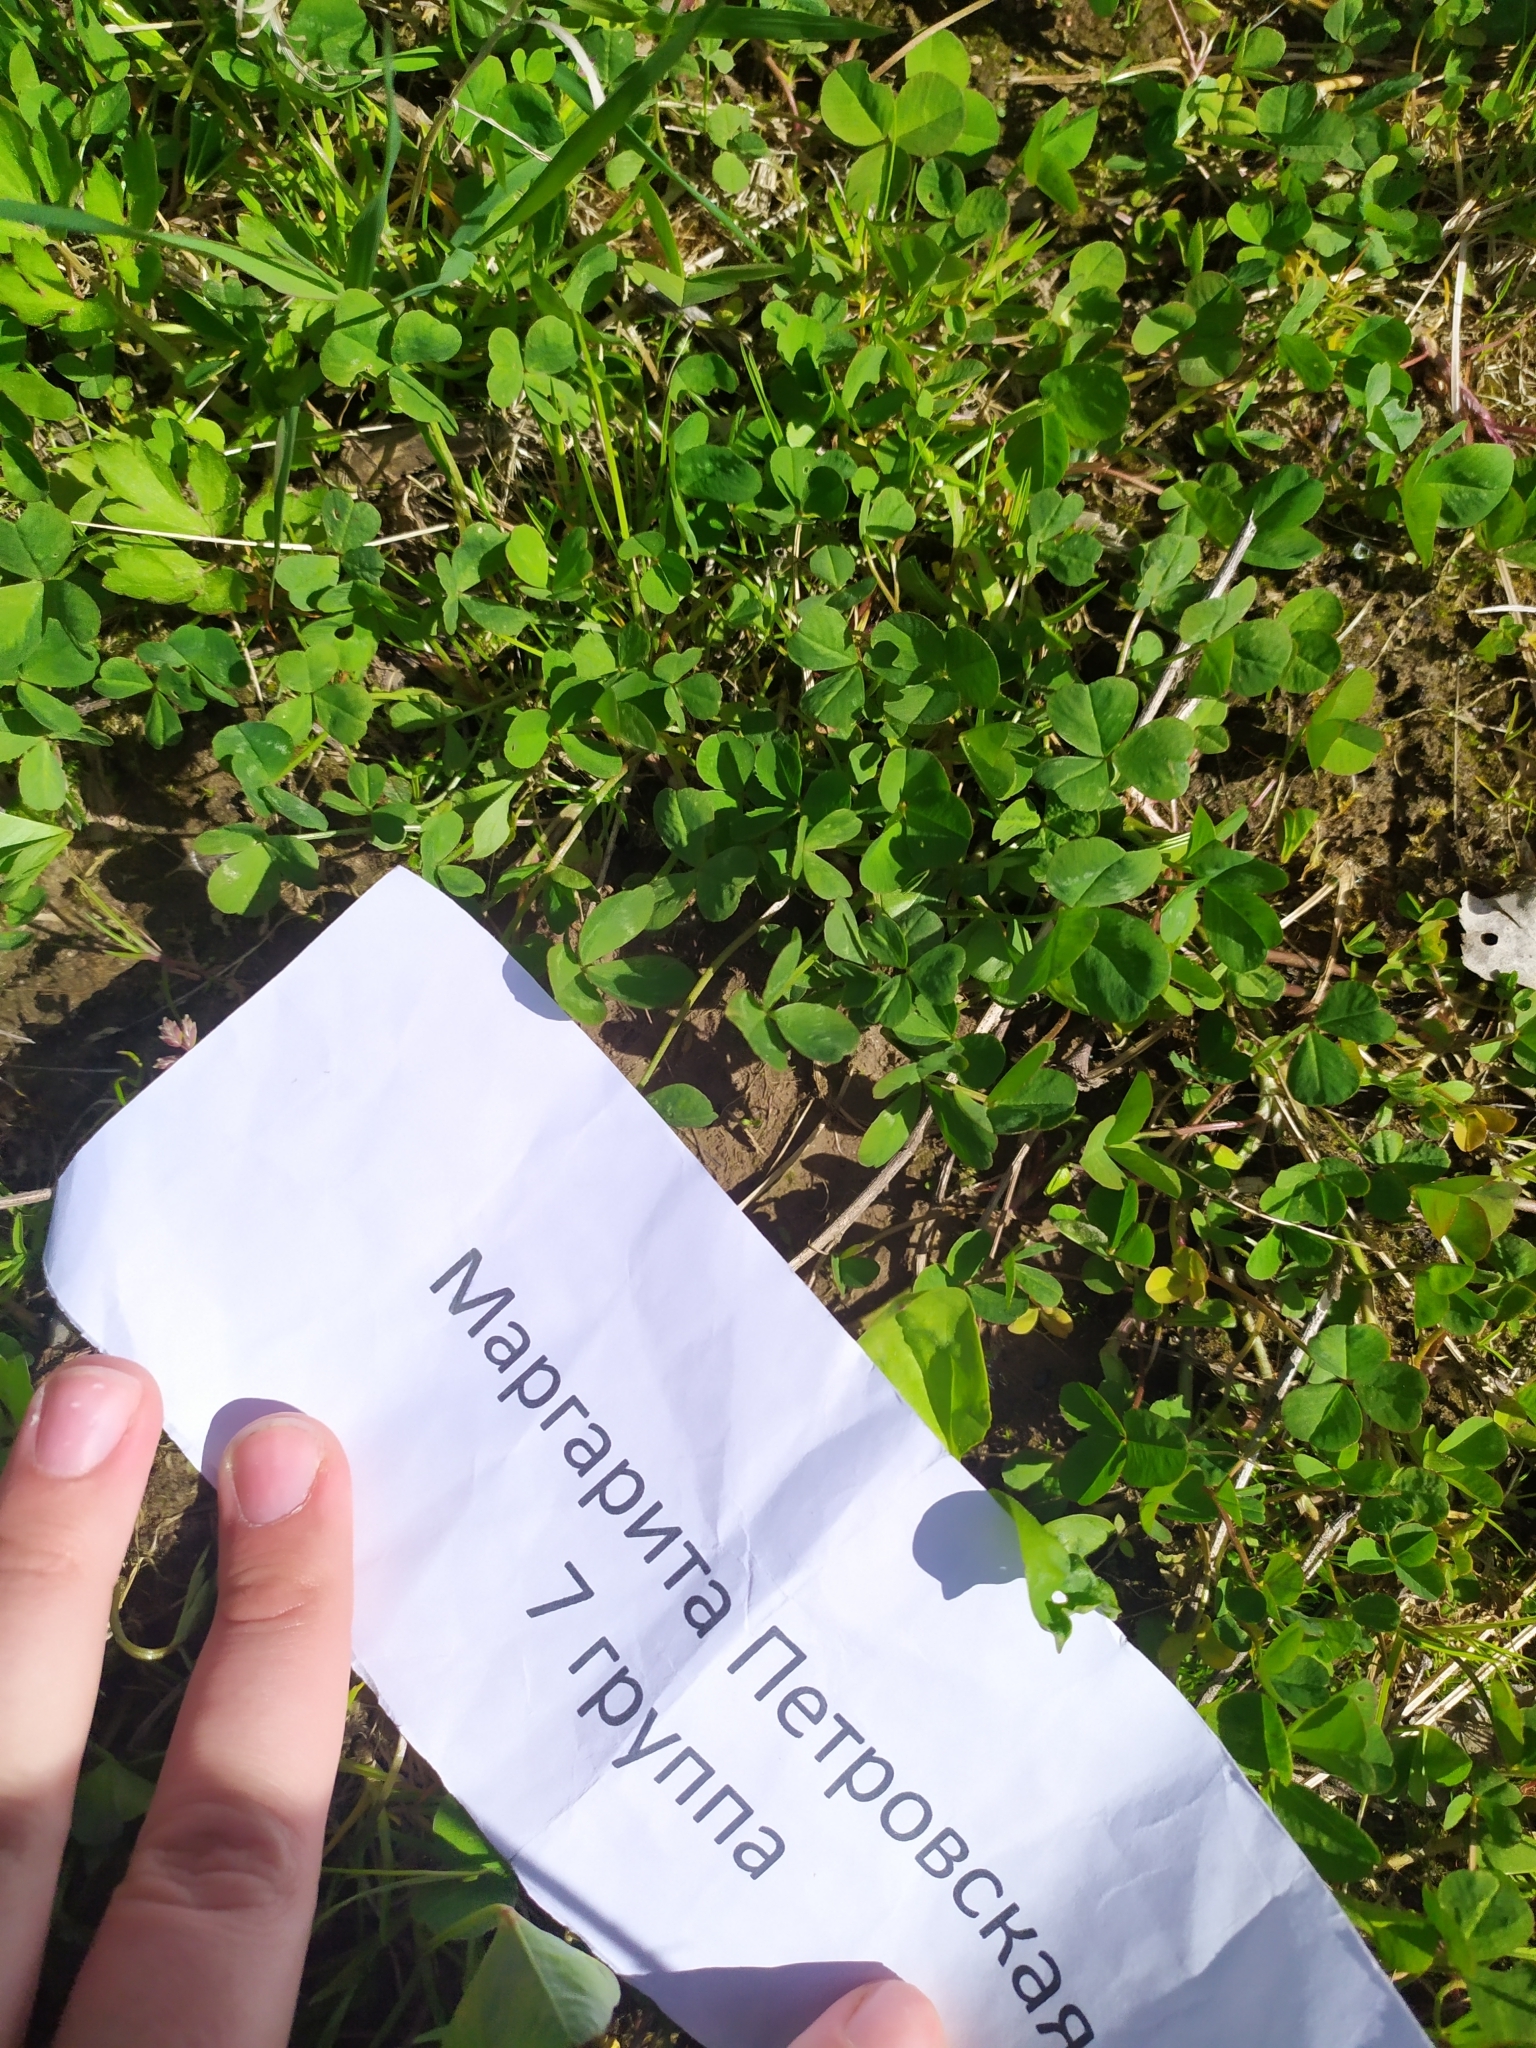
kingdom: Plantae
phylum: Tracheophyta
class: Magnoliopsida
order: Fabales
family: Fabaceae
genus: Trifolium
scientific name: Trifolium repens
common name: White clover
